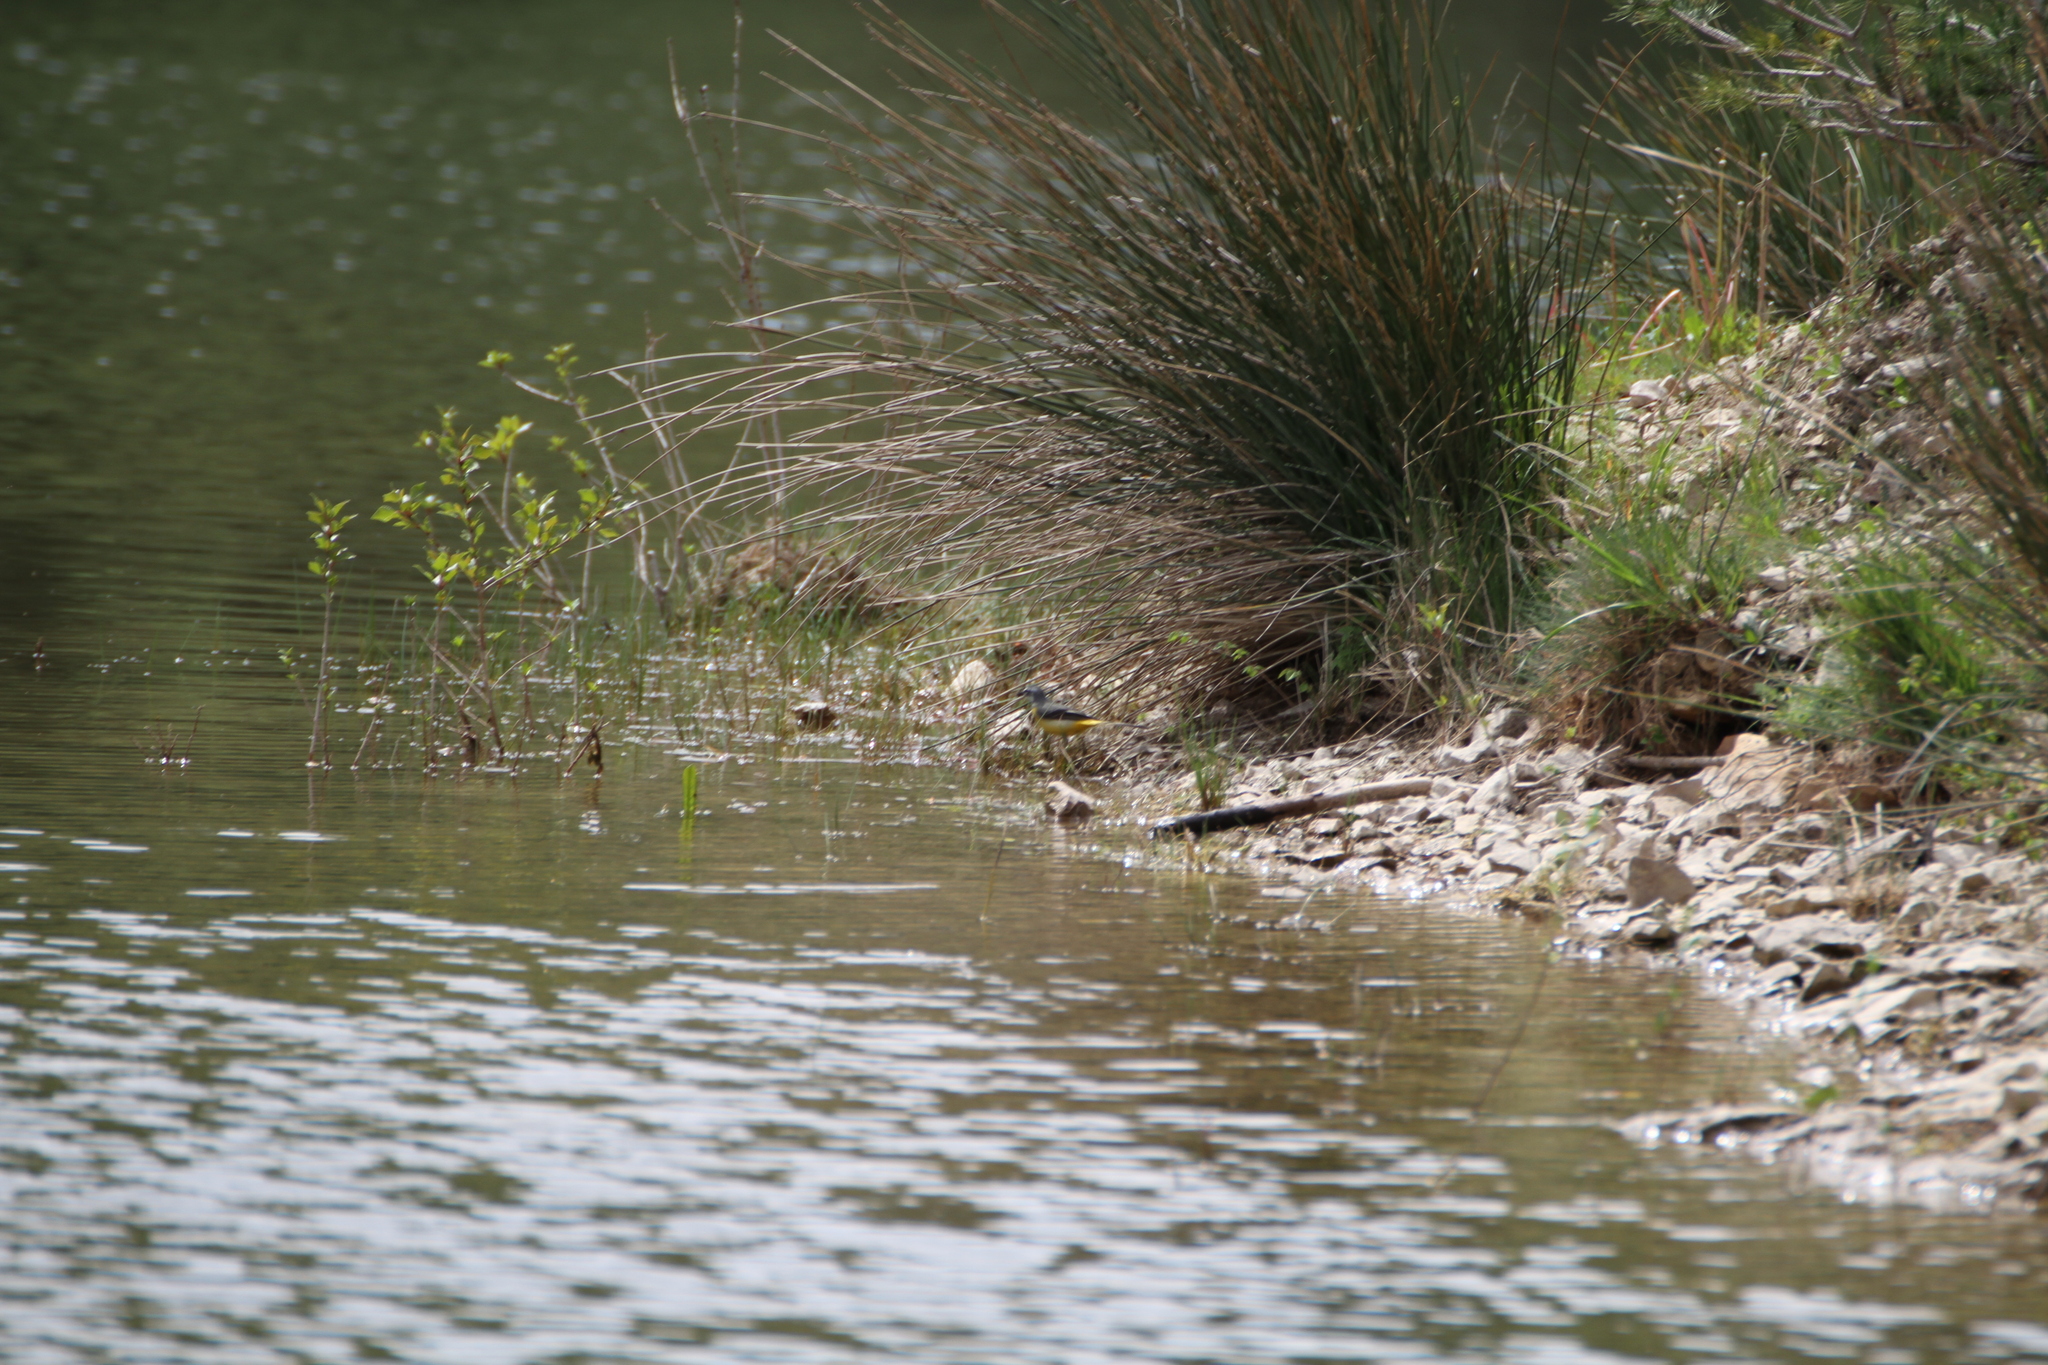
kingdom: Animalia
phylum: Chordata
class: Aves
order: Passeriformes
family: Motacillidae
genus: Motacilla
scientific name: Motacilla cinerea
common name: Grey wagtail
